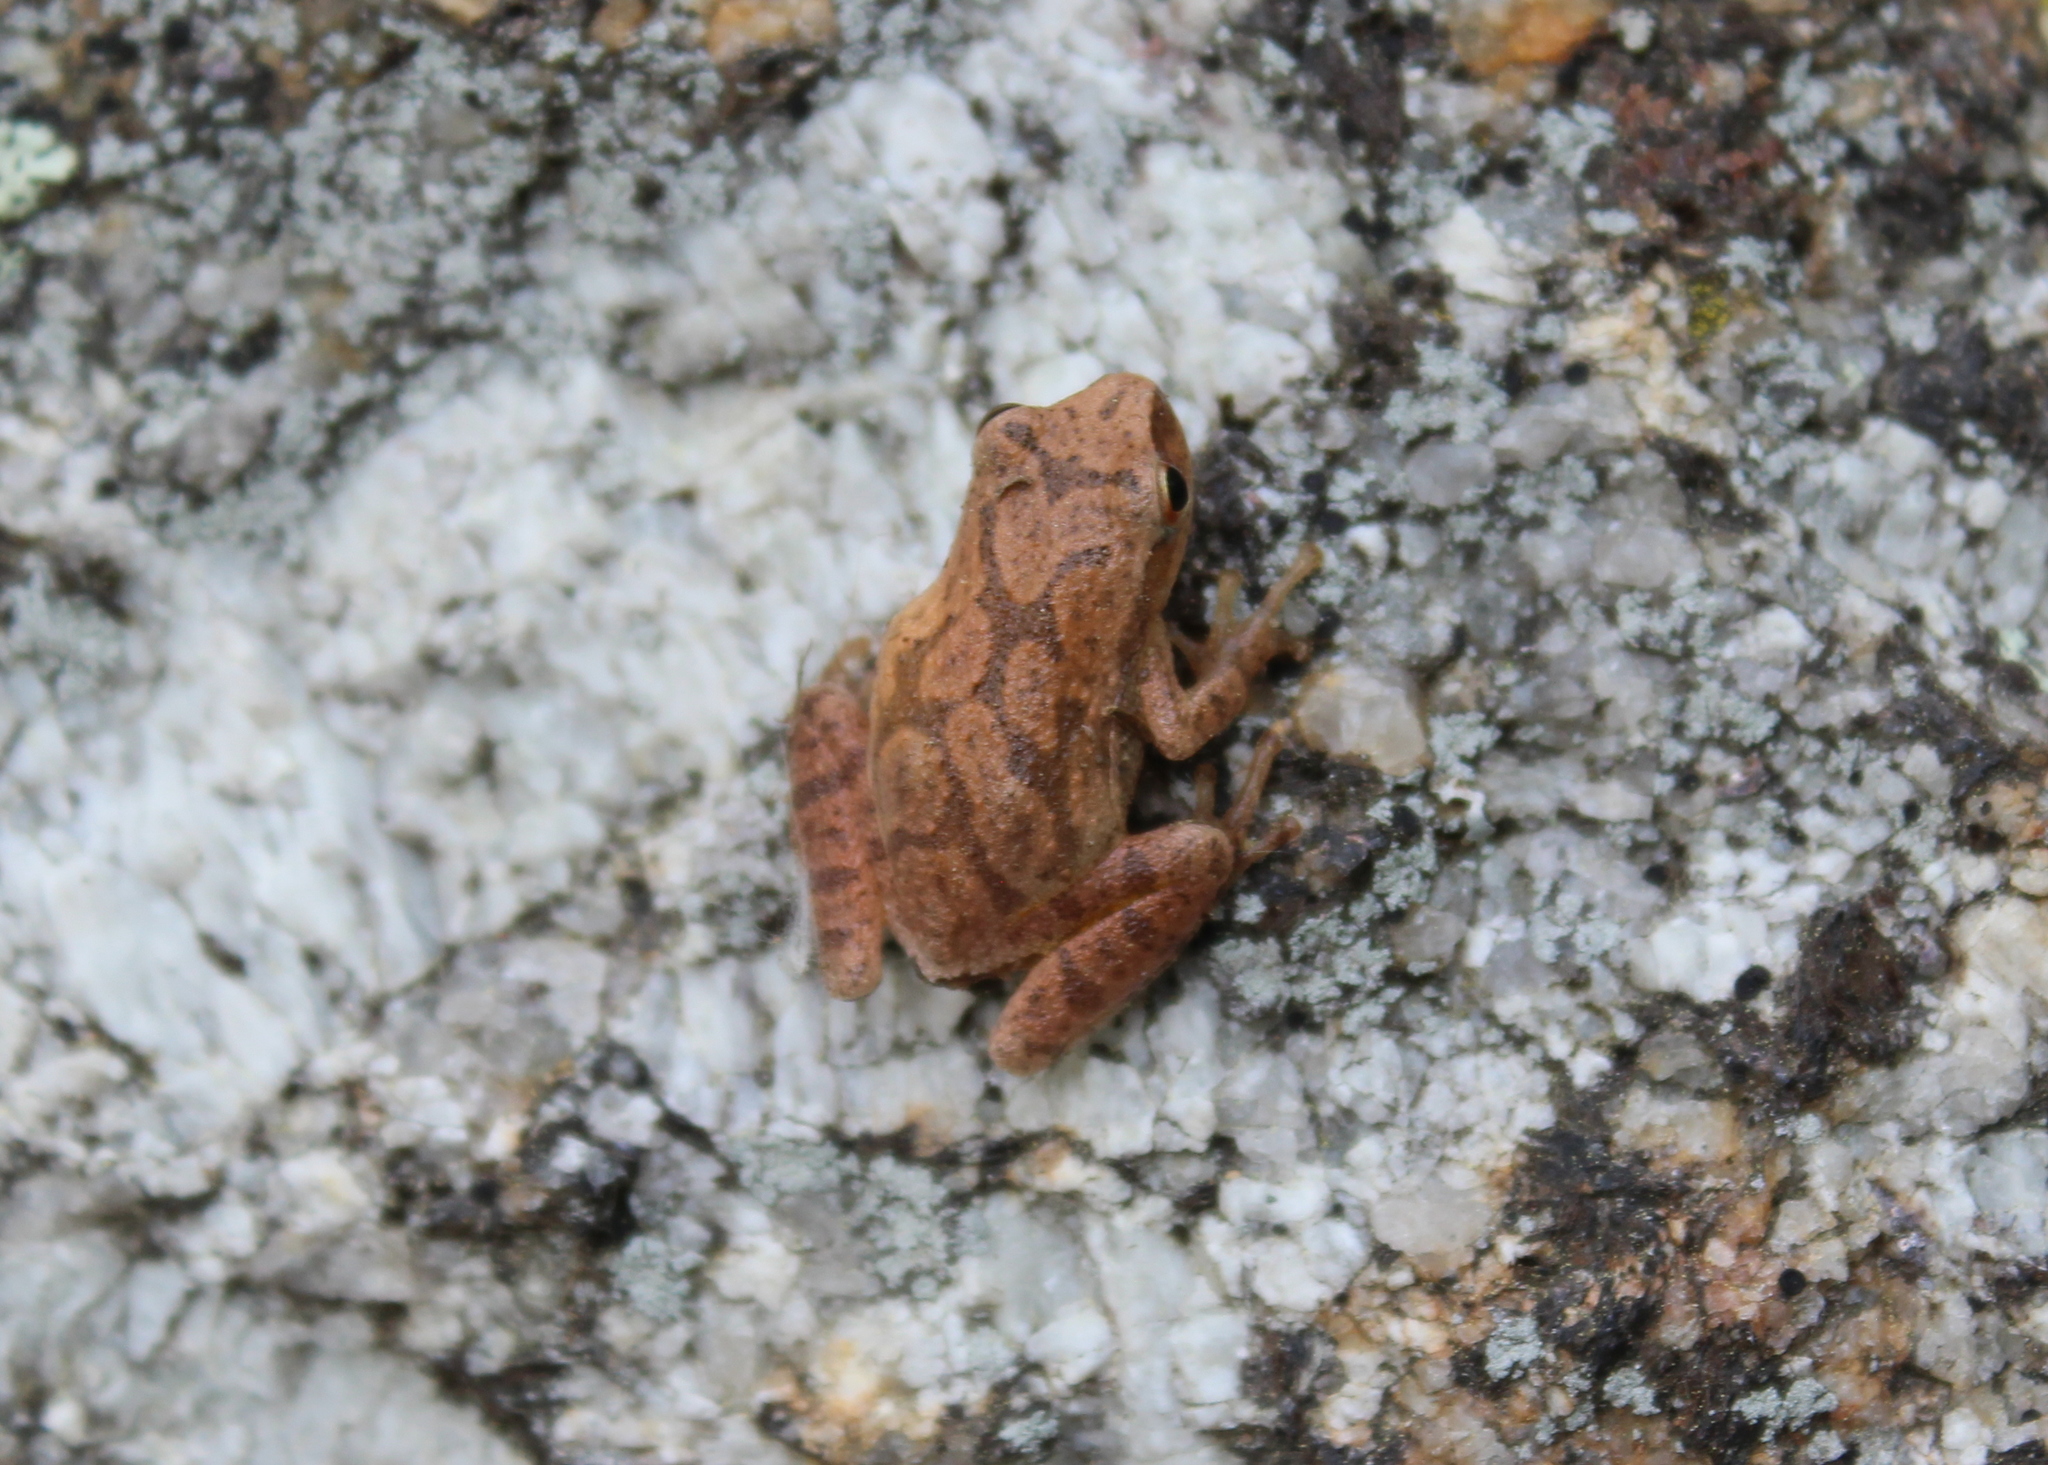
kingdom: Animalia
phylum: Chordata
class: Amphibia
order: Anura
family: Hylidae
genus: Pseudacris
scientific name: Pseudacris crucifer
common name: Spring peeper
